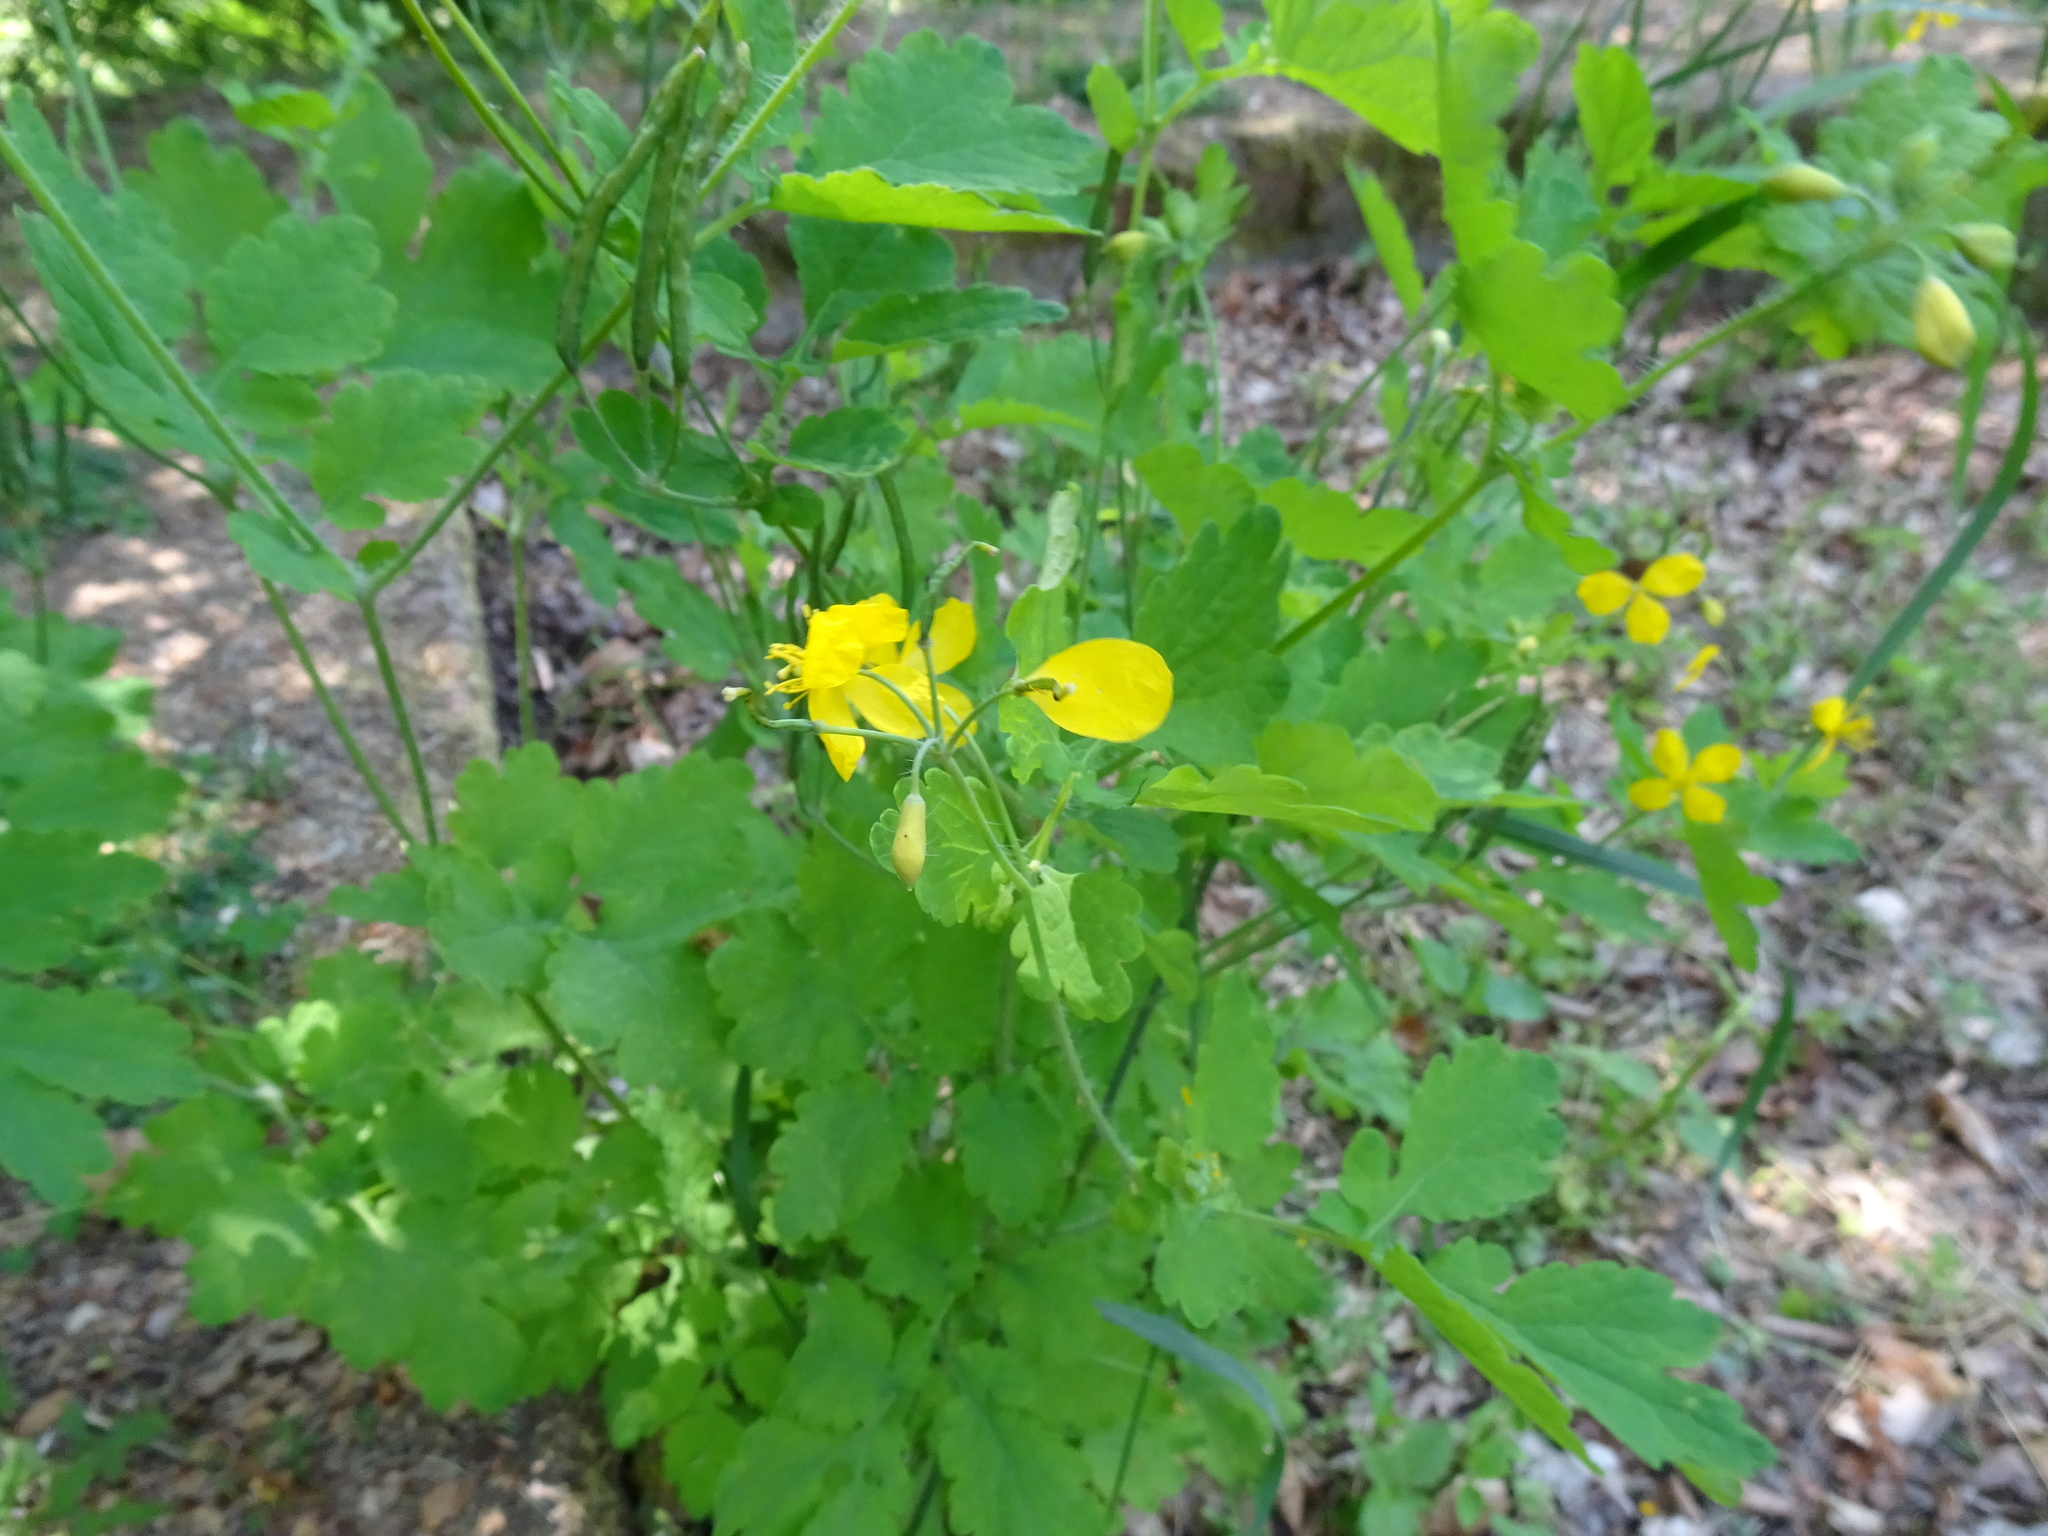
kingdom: Plantae
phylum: Tracheophyta
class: Magnoliopsida
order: Ranunculales
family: Papaveraceae
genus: Chelidonium
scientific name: Chelidonium majus
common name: Greater celandine
